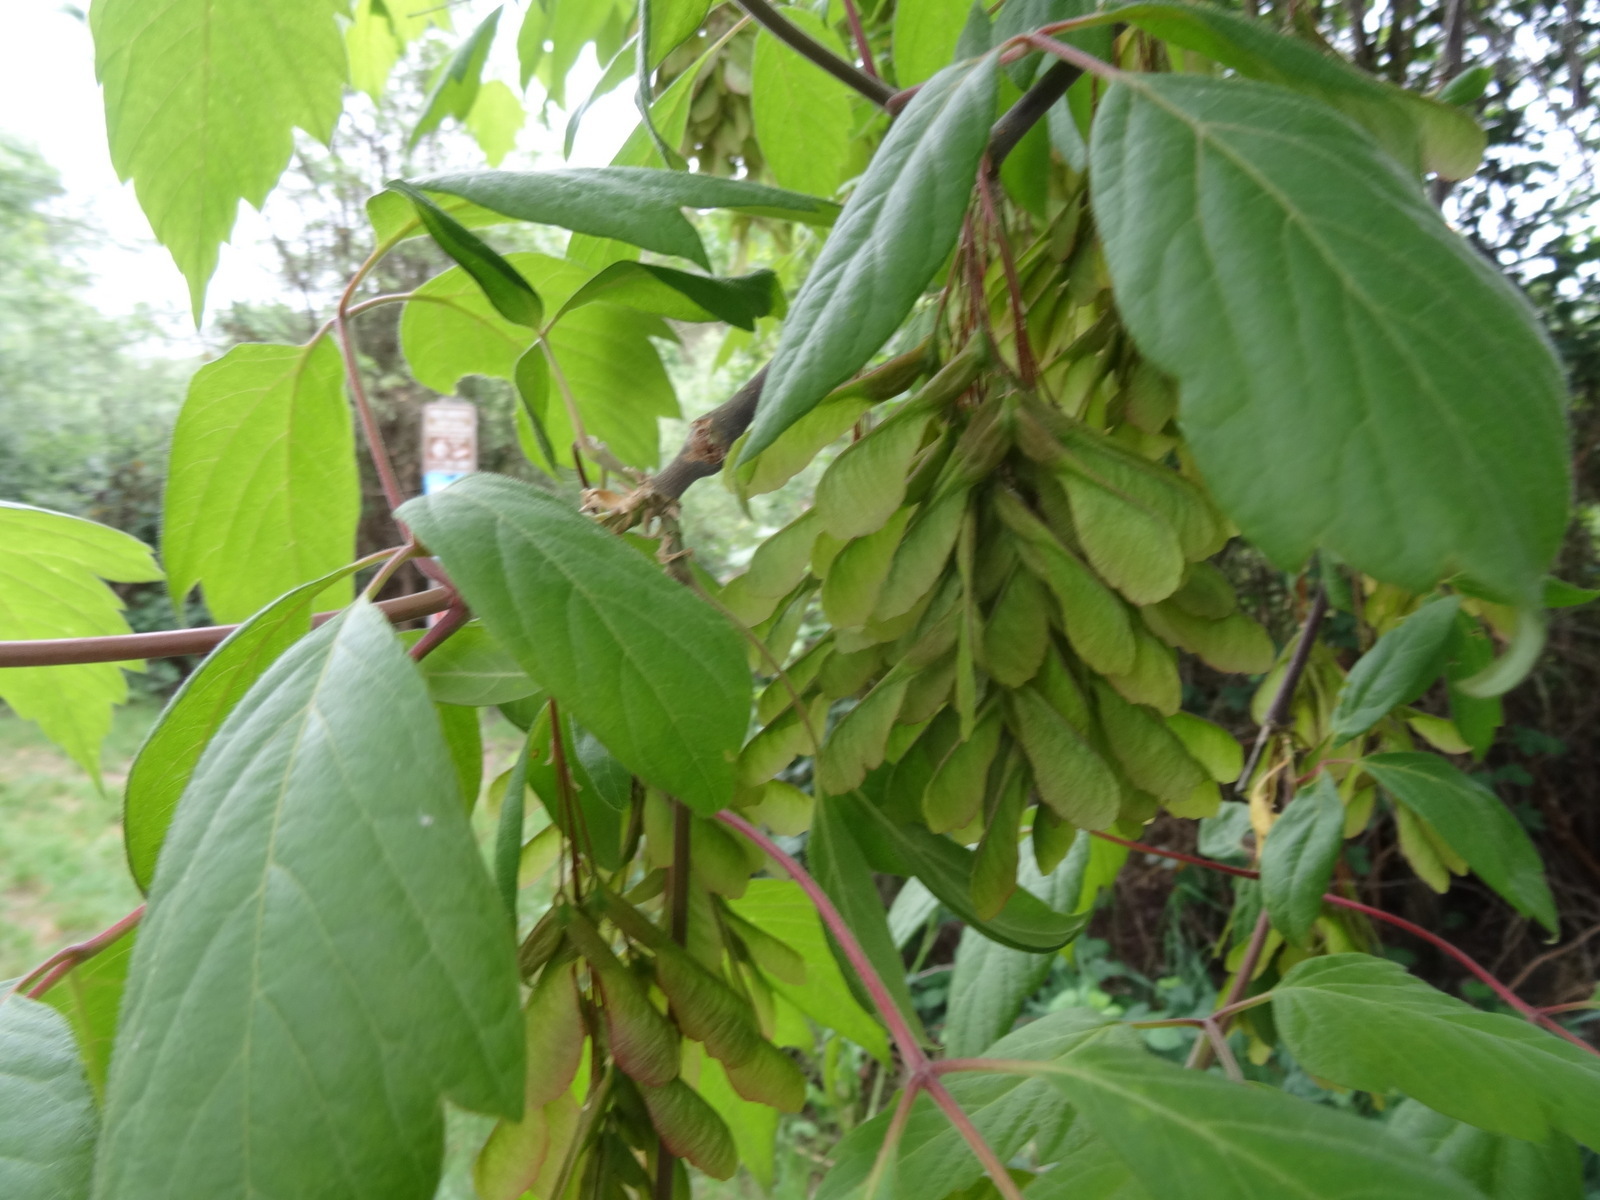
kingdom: Plantae
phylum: Tracheophyta
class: Magnoliopsida
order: Sapindales
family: Sapindaceae
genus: Acer
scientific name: Acer negundo
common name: Ashleaf maple
